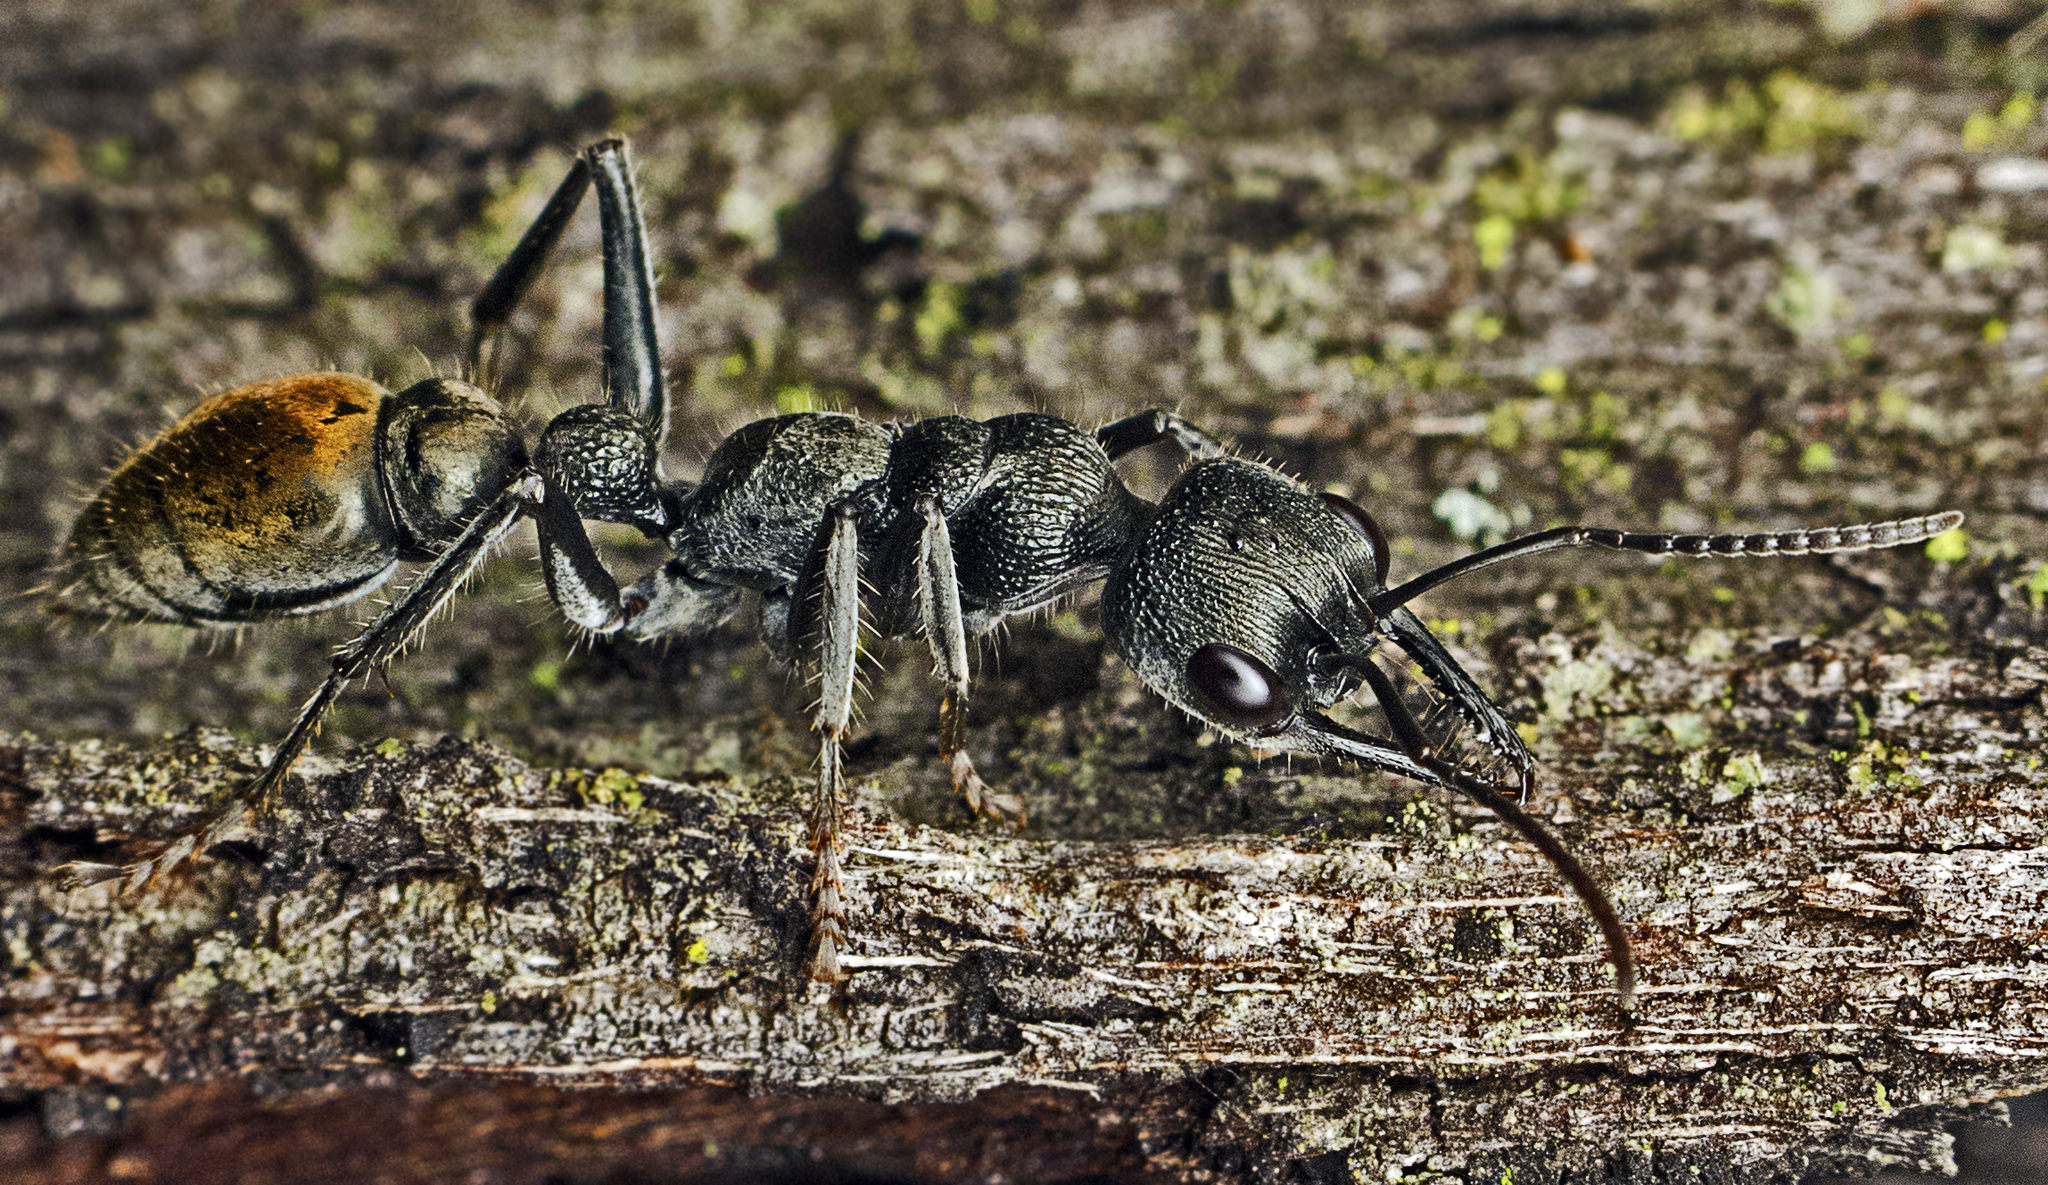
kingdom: Animalia
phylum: Arthropoda
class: Insecta
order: Hymenoptera
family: Formicidae
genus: Myrmecia
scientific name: Myrmecia gilberti
